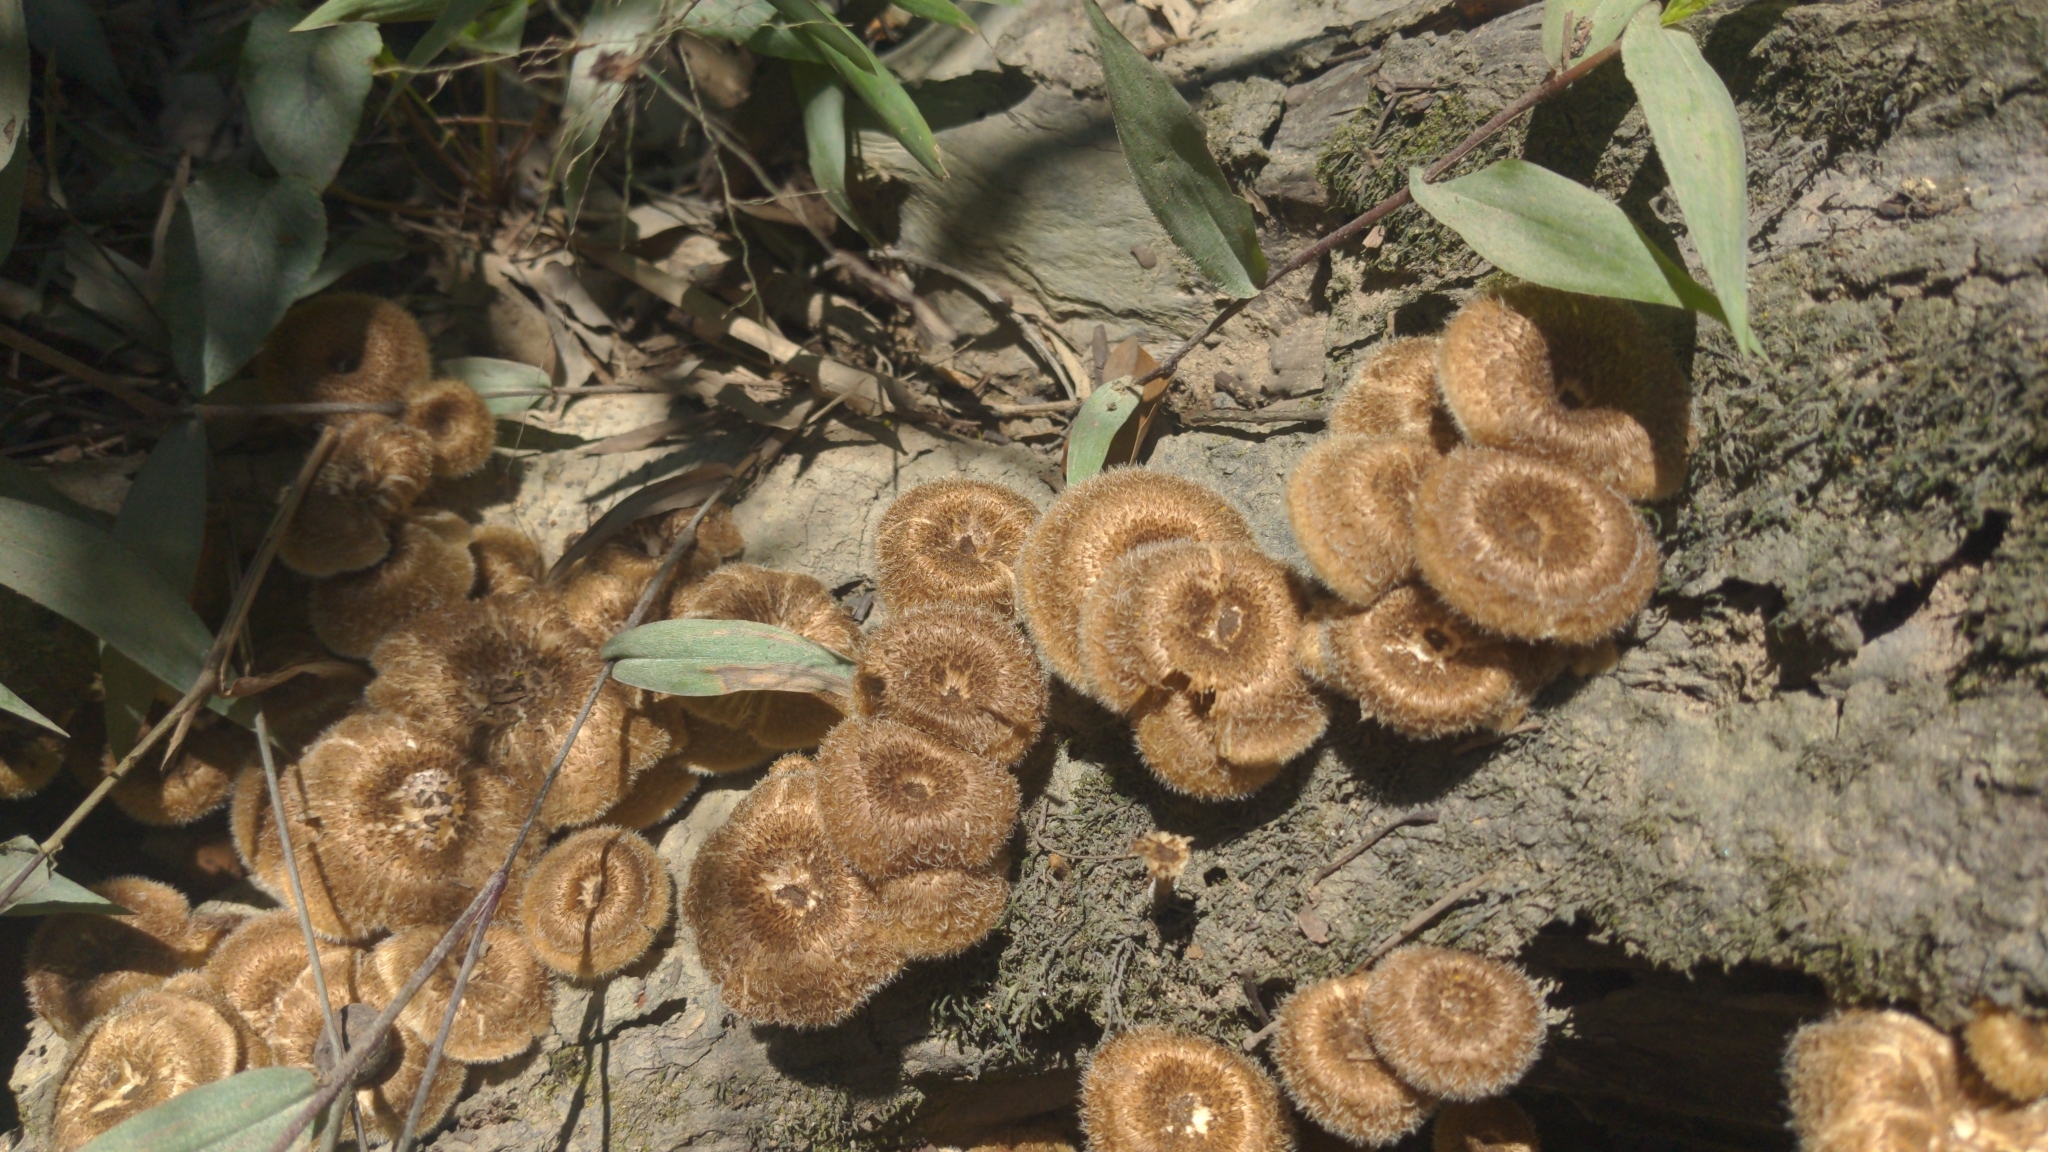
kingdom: Fungi
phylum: Basidiomycota
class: Agaricomycetes
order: Polyporales
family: Polyporaceae
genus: Lentinus
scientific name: Lentinus crinitus
